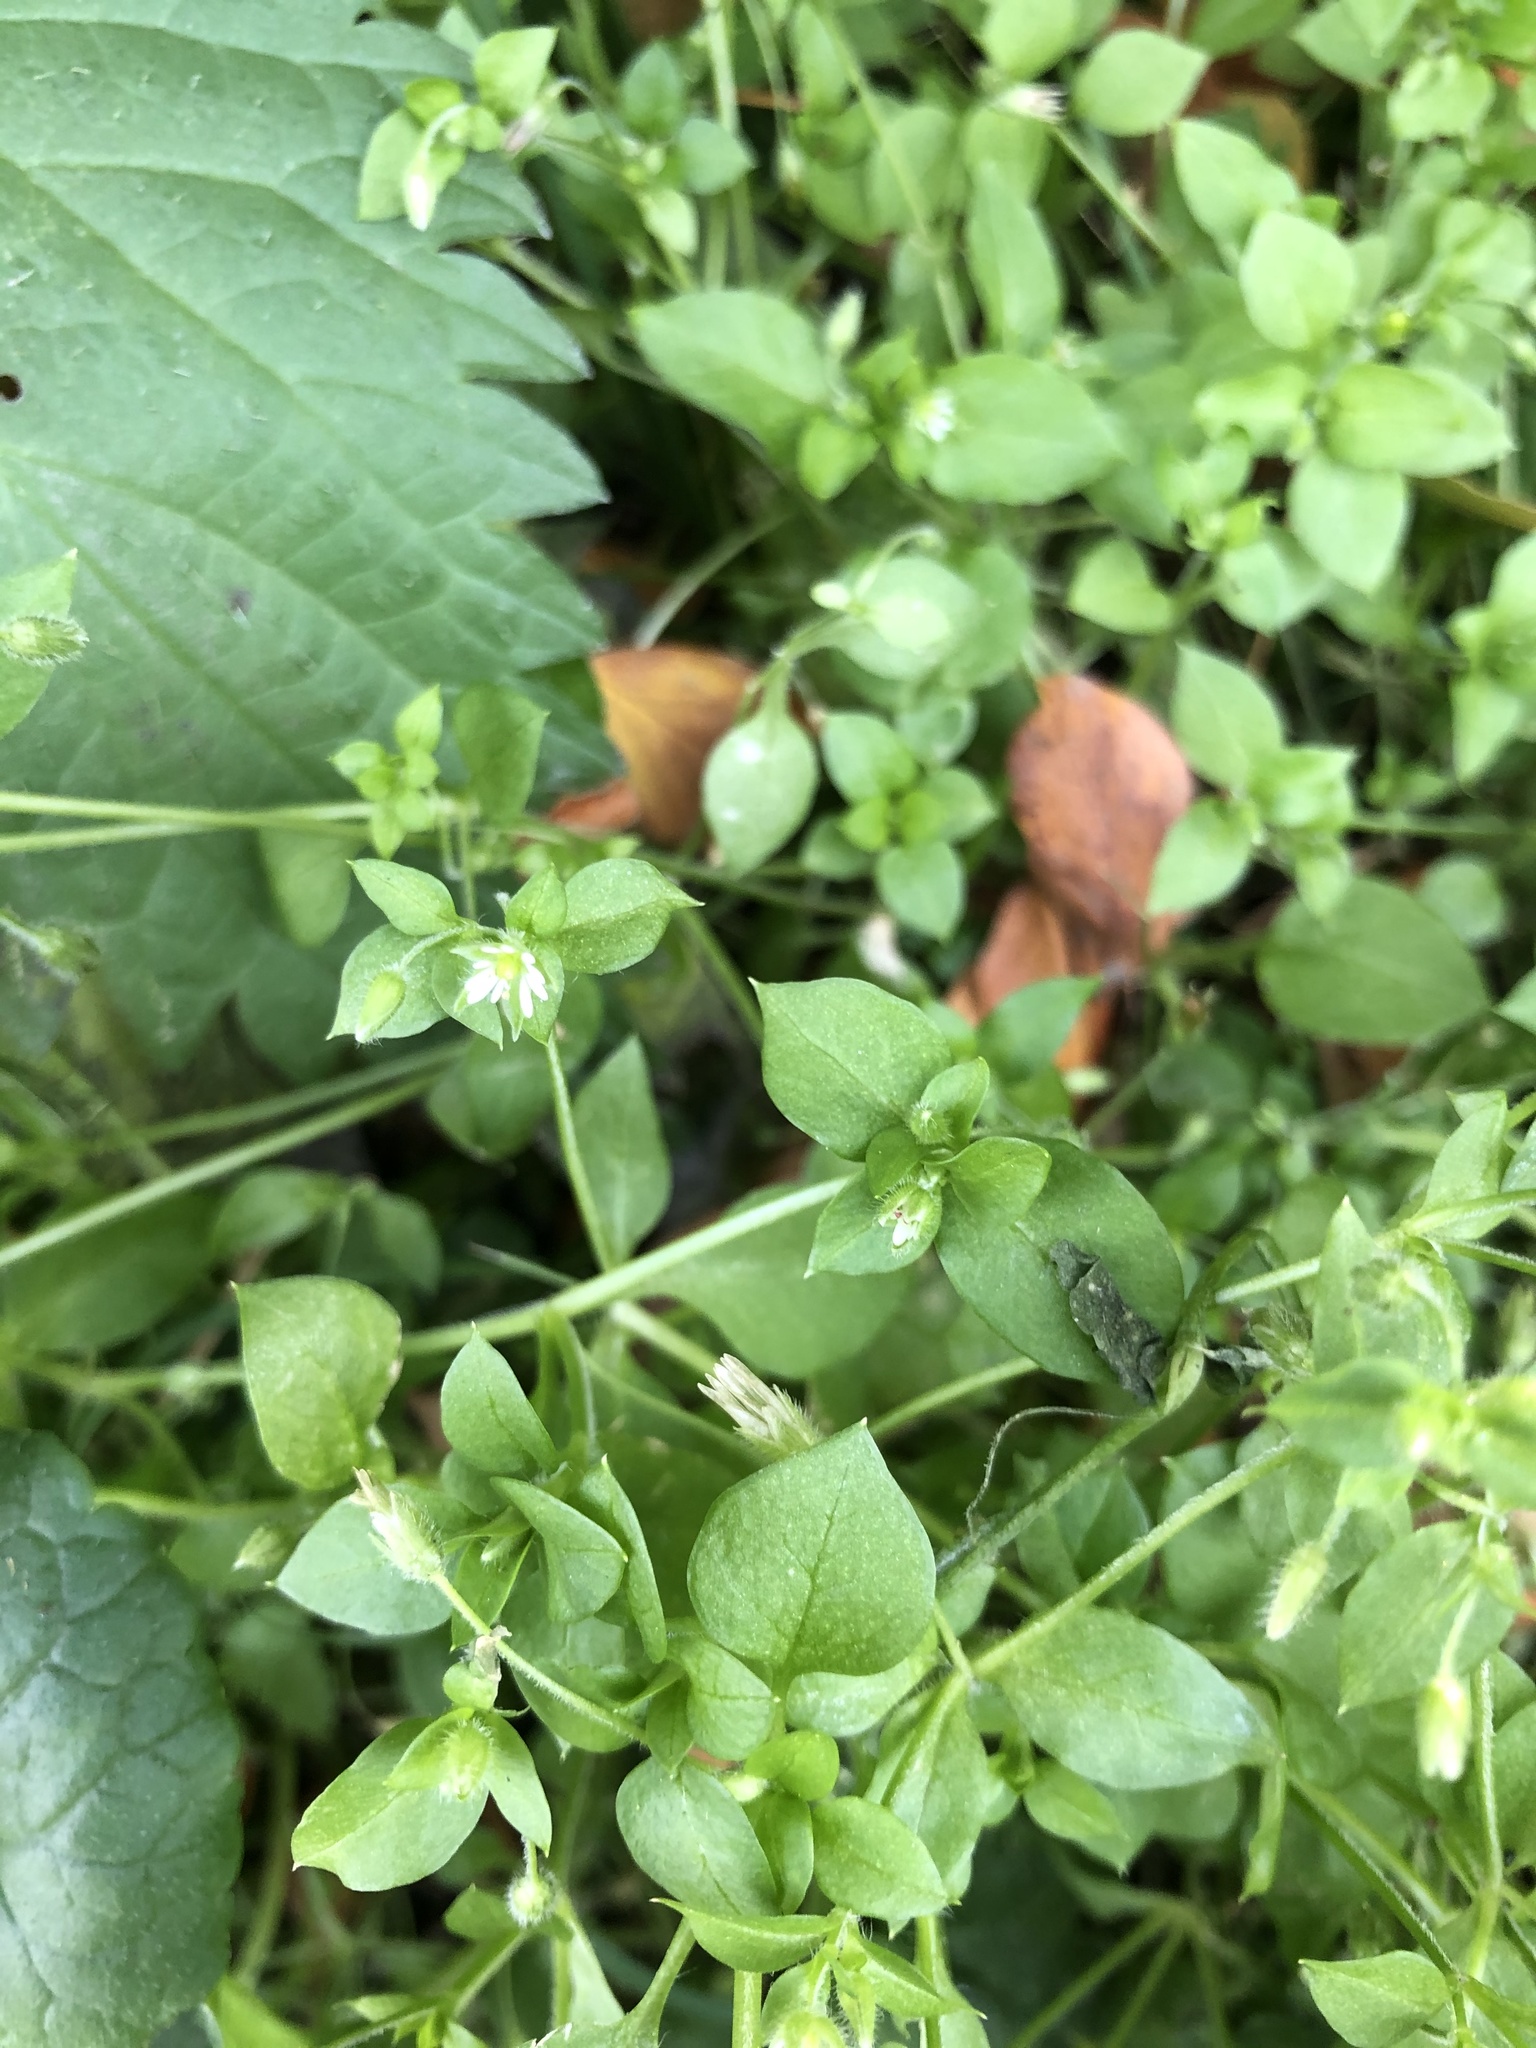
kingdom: Plantae
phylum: Tracheophyta
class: Magnoliopsida
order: Caryophyllales
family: Caryophyllaceae
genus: Stellaria
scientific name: Stellaria media
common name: Common chickweed
